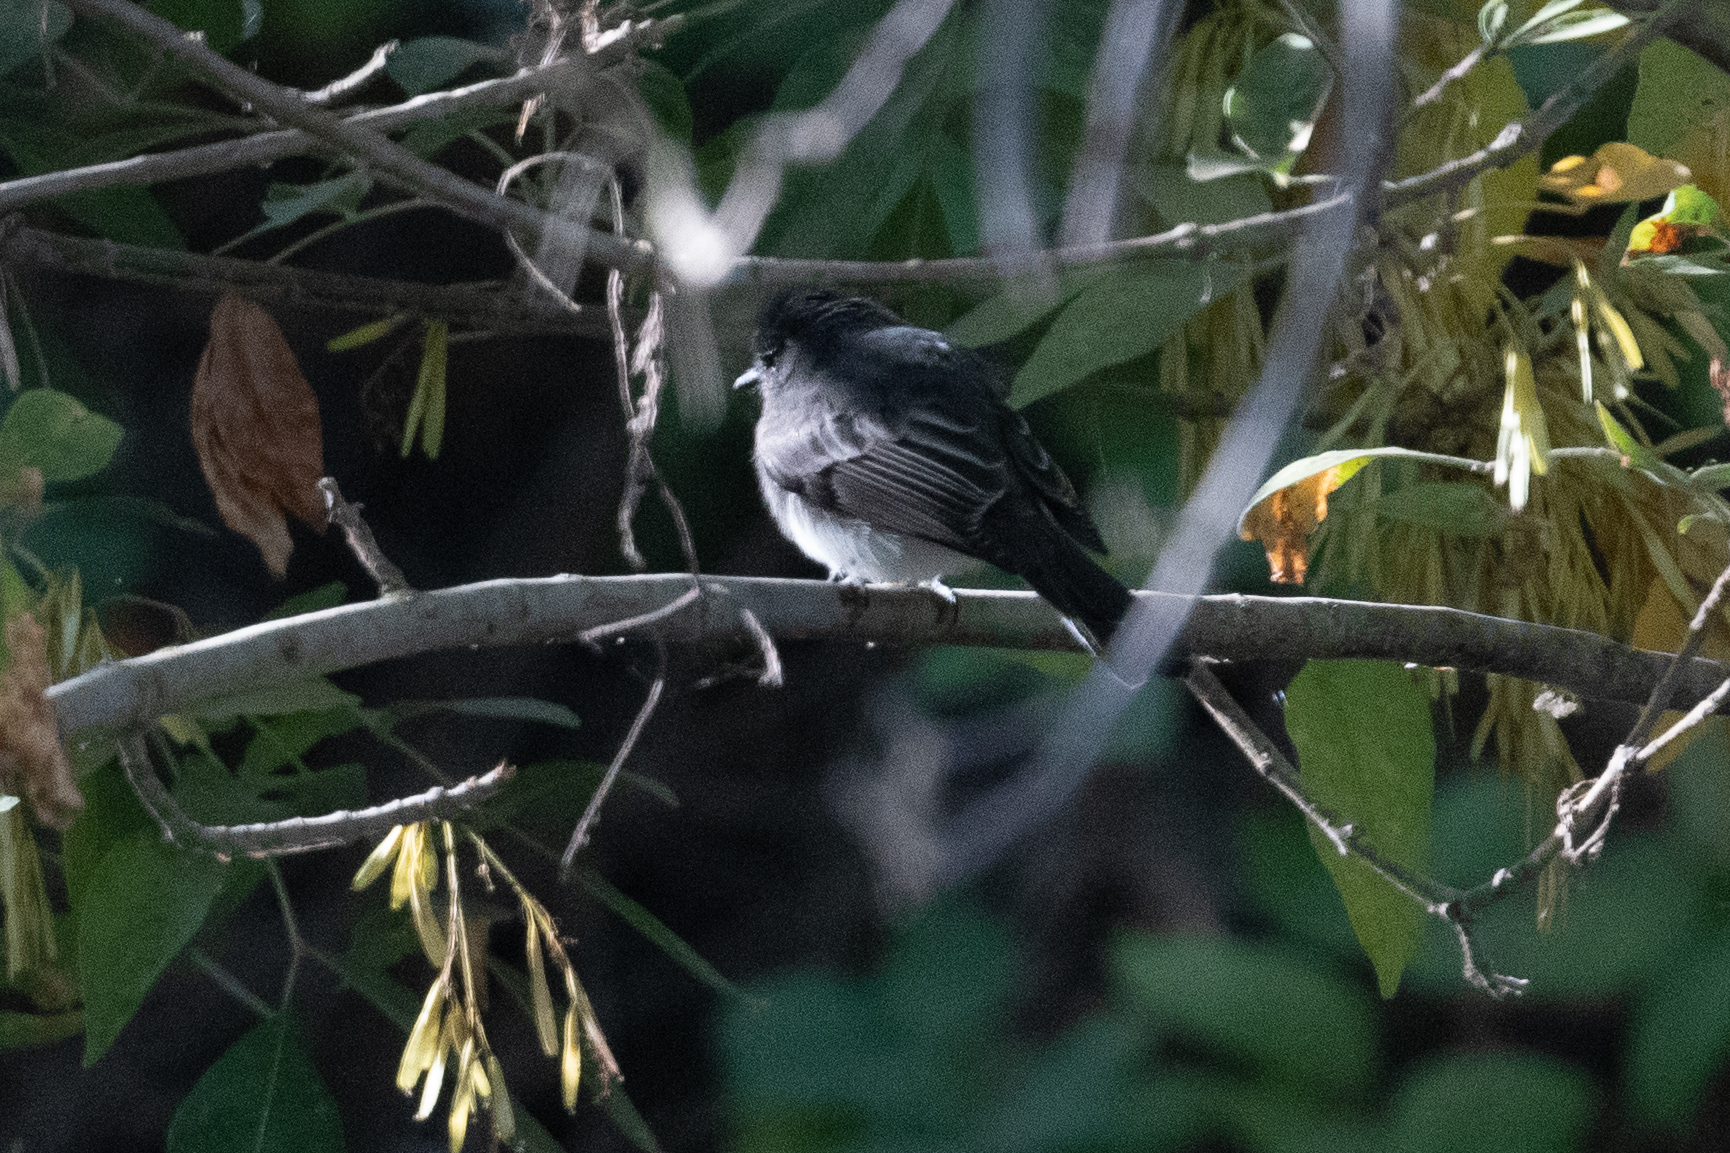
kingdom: Animalia
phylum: Chordata
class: Aves
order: Passeriformes
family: Tyrannidae
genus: Sayornis
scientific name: Sayornis nigricans
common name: Black phoebe
